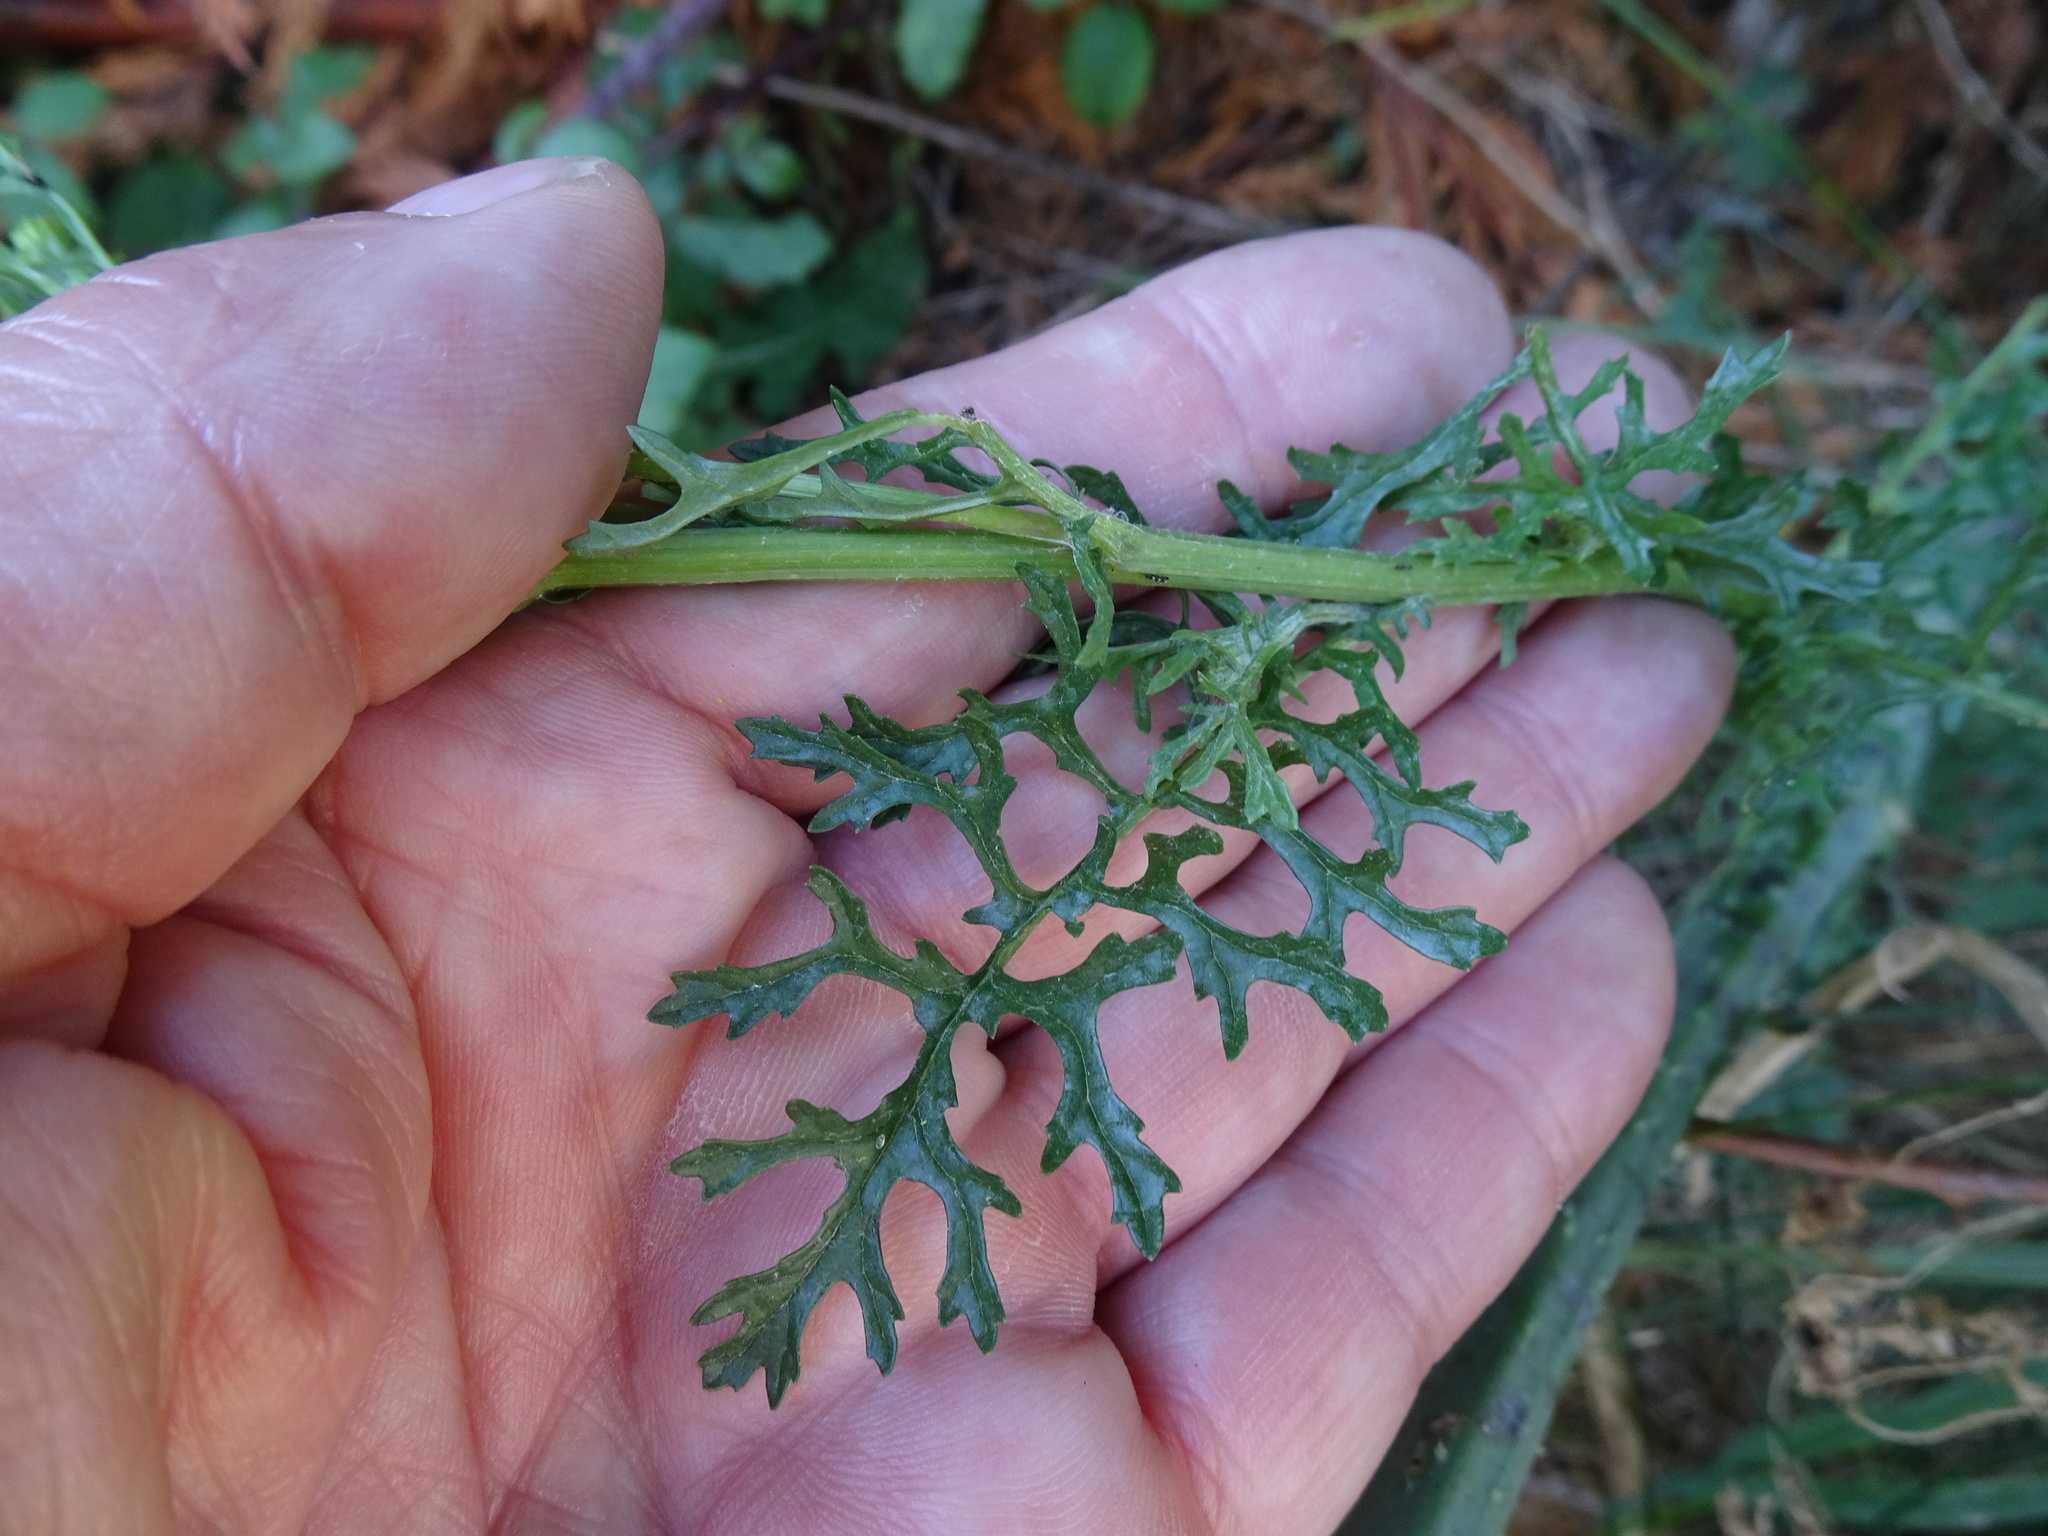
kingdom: Plantae
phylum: Tracheophyta
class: Magnoliopsida
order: Asterales
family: Asteraceae
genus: Jacobaea
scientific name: Jacobaea vulgaris
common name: Stinking willie
